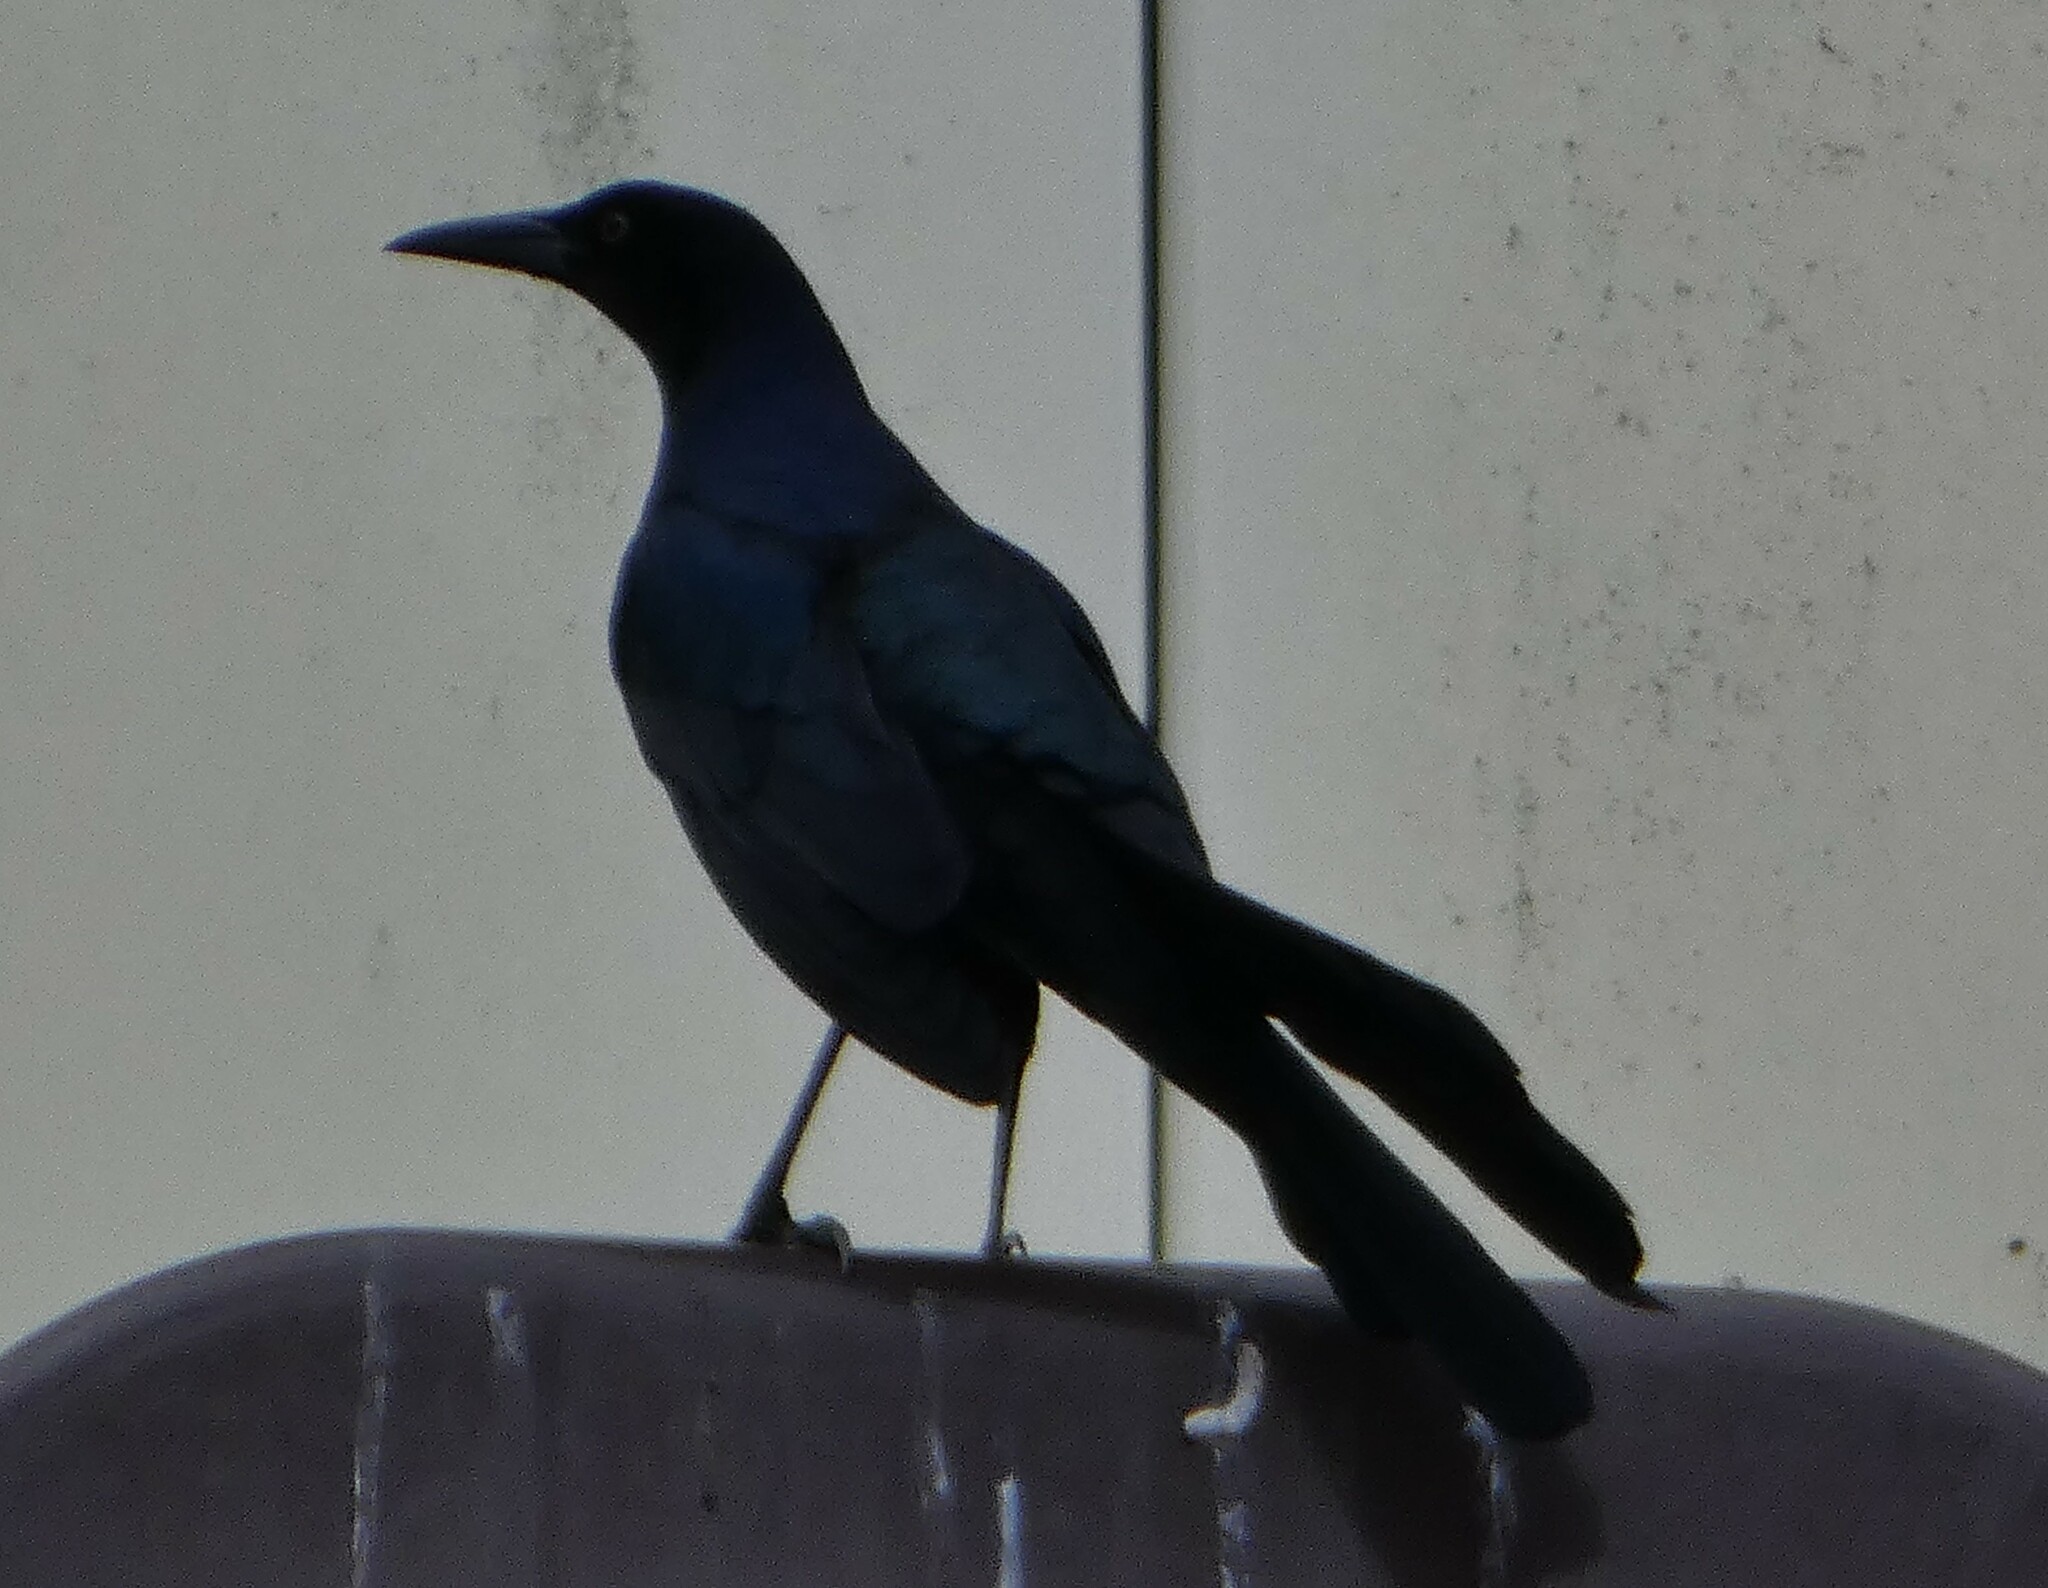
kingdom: Animalia
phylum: Chordata
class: Aves
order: Passeriformes
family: Icteridae
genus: Quiscalus
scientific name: Quiscalus major
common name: Boat-tailed grackle
